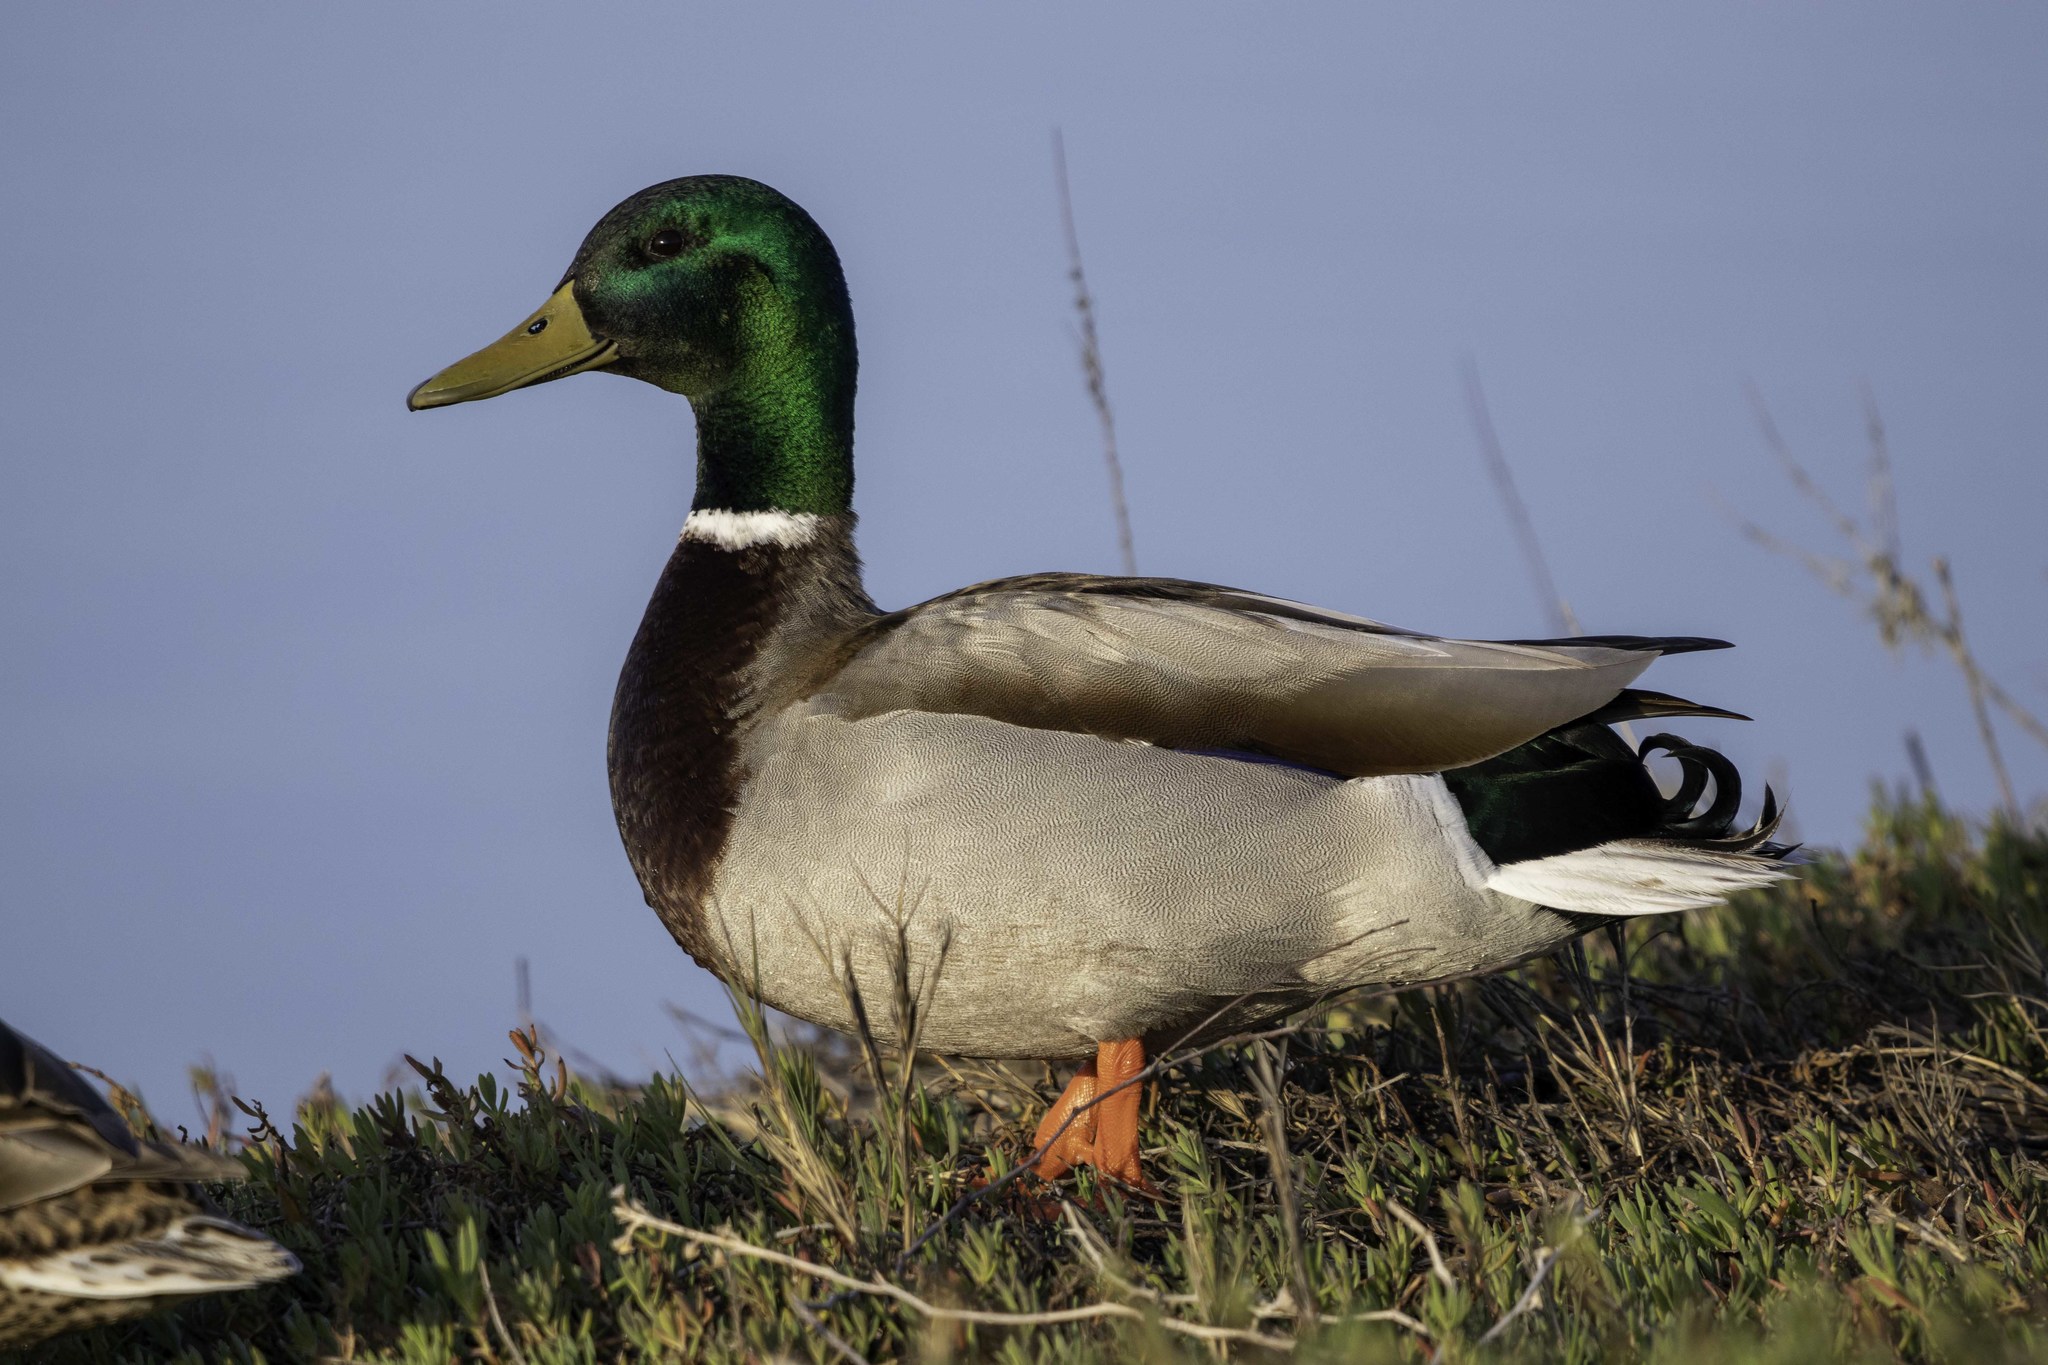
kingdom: Animalia
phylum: Chordata
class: Aves
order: Anseriformes
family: Anatidae
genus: Anas
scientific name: Anas platyrhynchos
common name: Mallard
